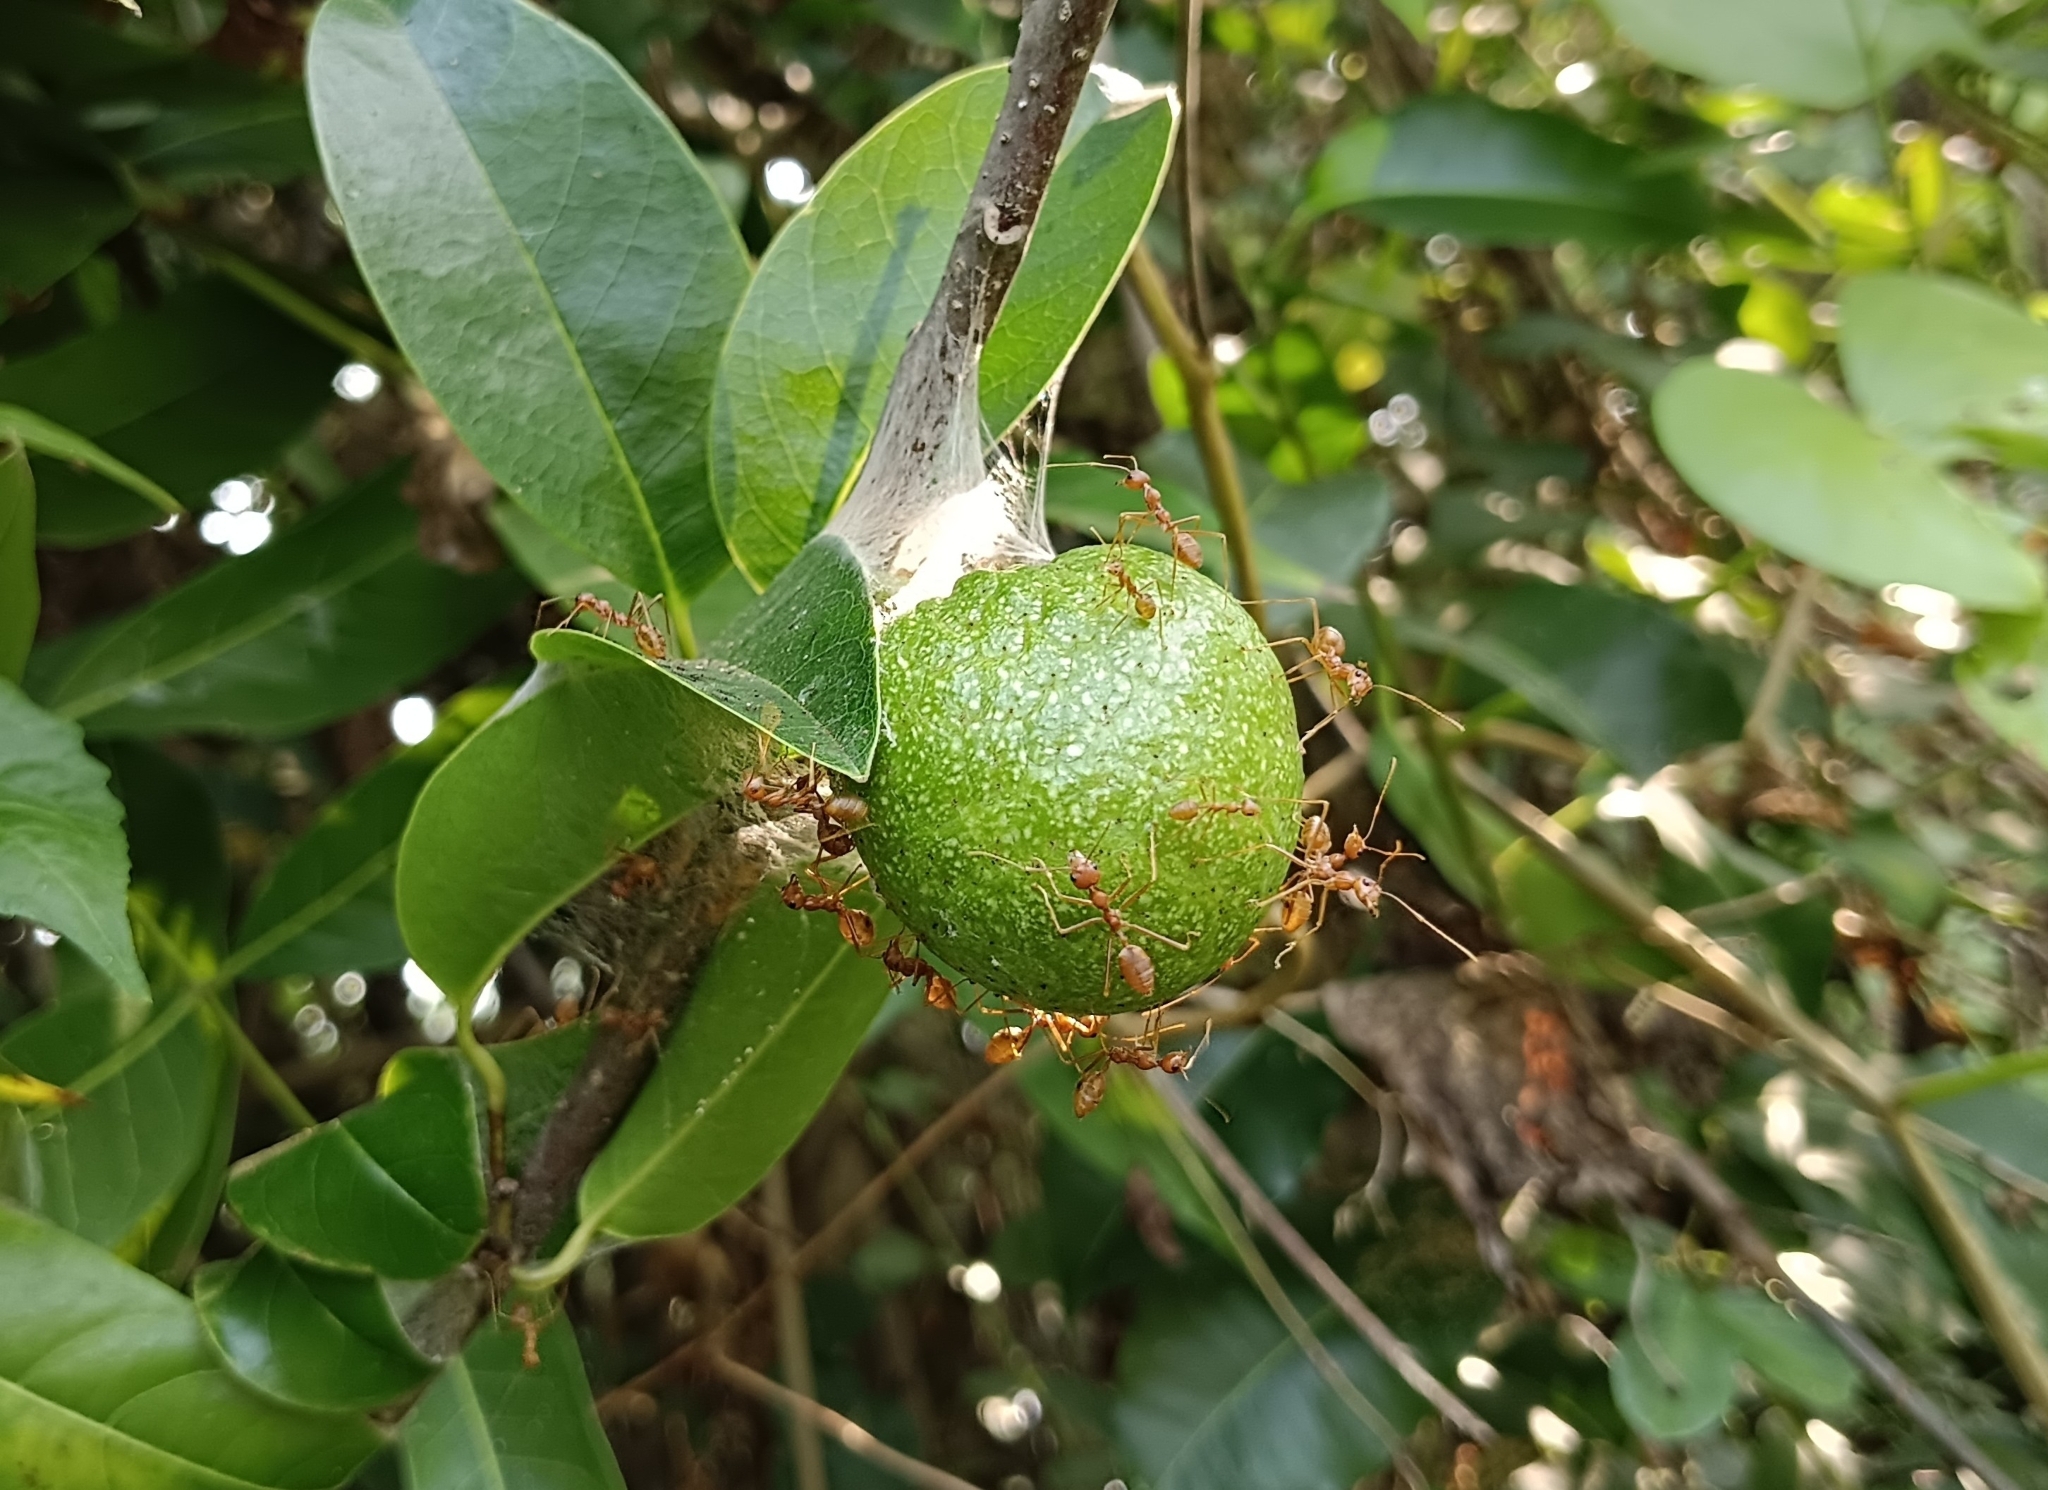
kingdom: Plantae
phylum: Tracheophyta
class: Magnoliopsida
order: Magnoliales
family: Annonaceae
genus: Annona
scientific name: Annona glabra
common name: Monkey apple
